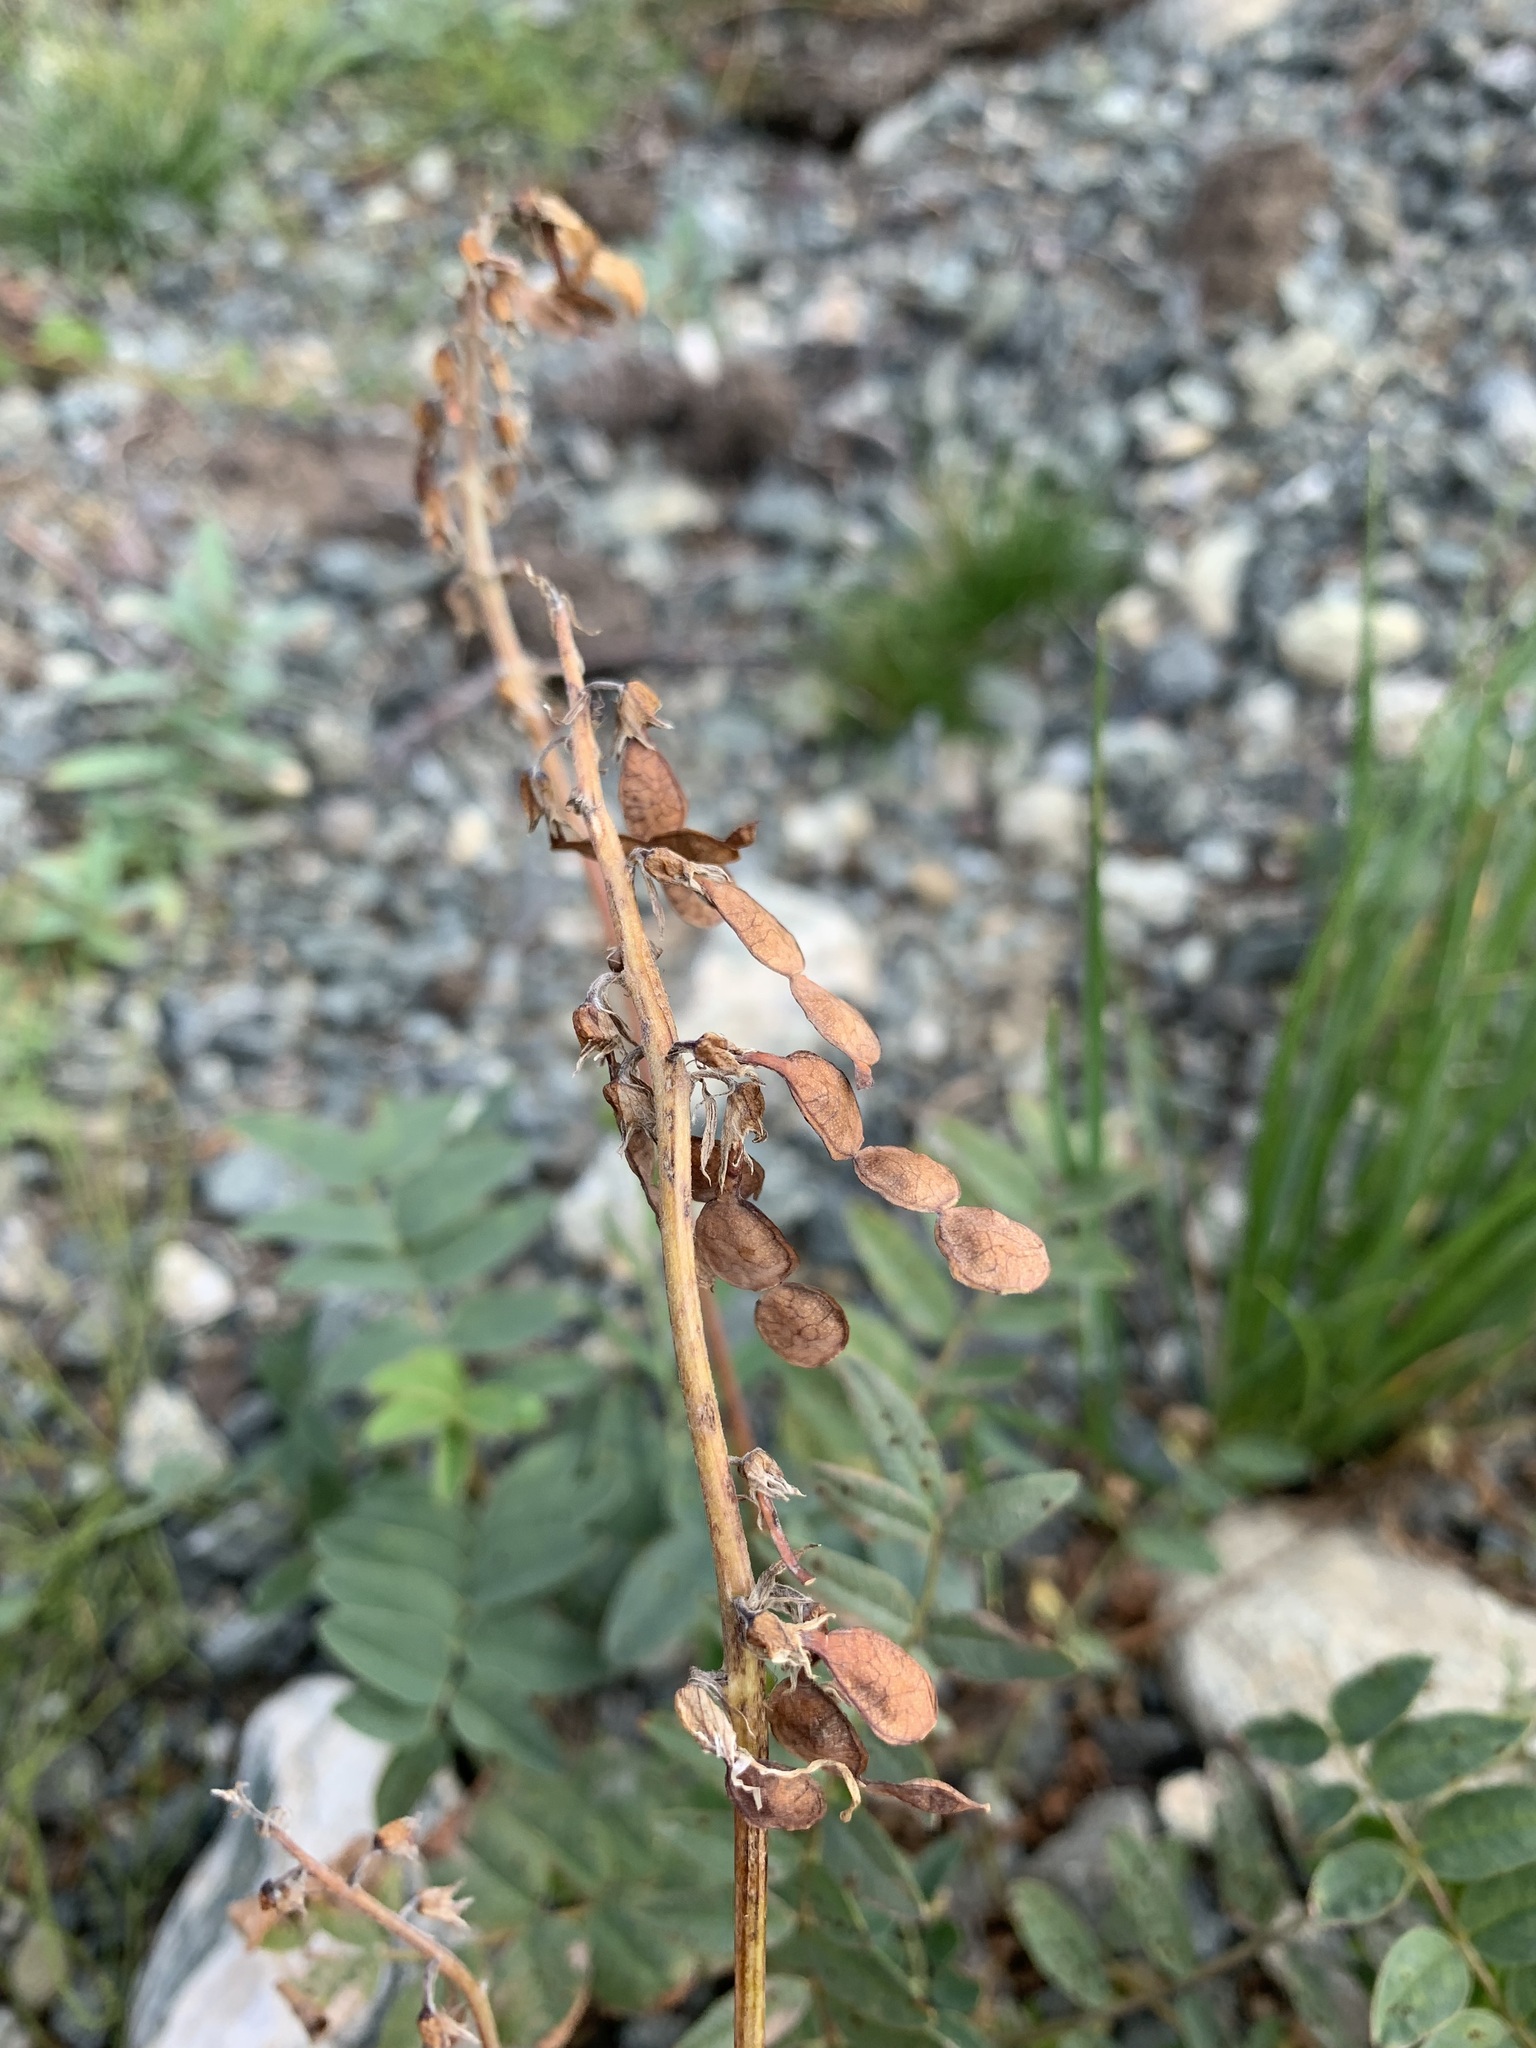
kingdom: Plantae
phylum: Tracheophyta
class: Magnoliopsida
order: Fabales
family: Fabaceae
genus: Hedysarum
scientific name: Hedysarum hedysaroides
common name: Alpine french-honeysuckle
